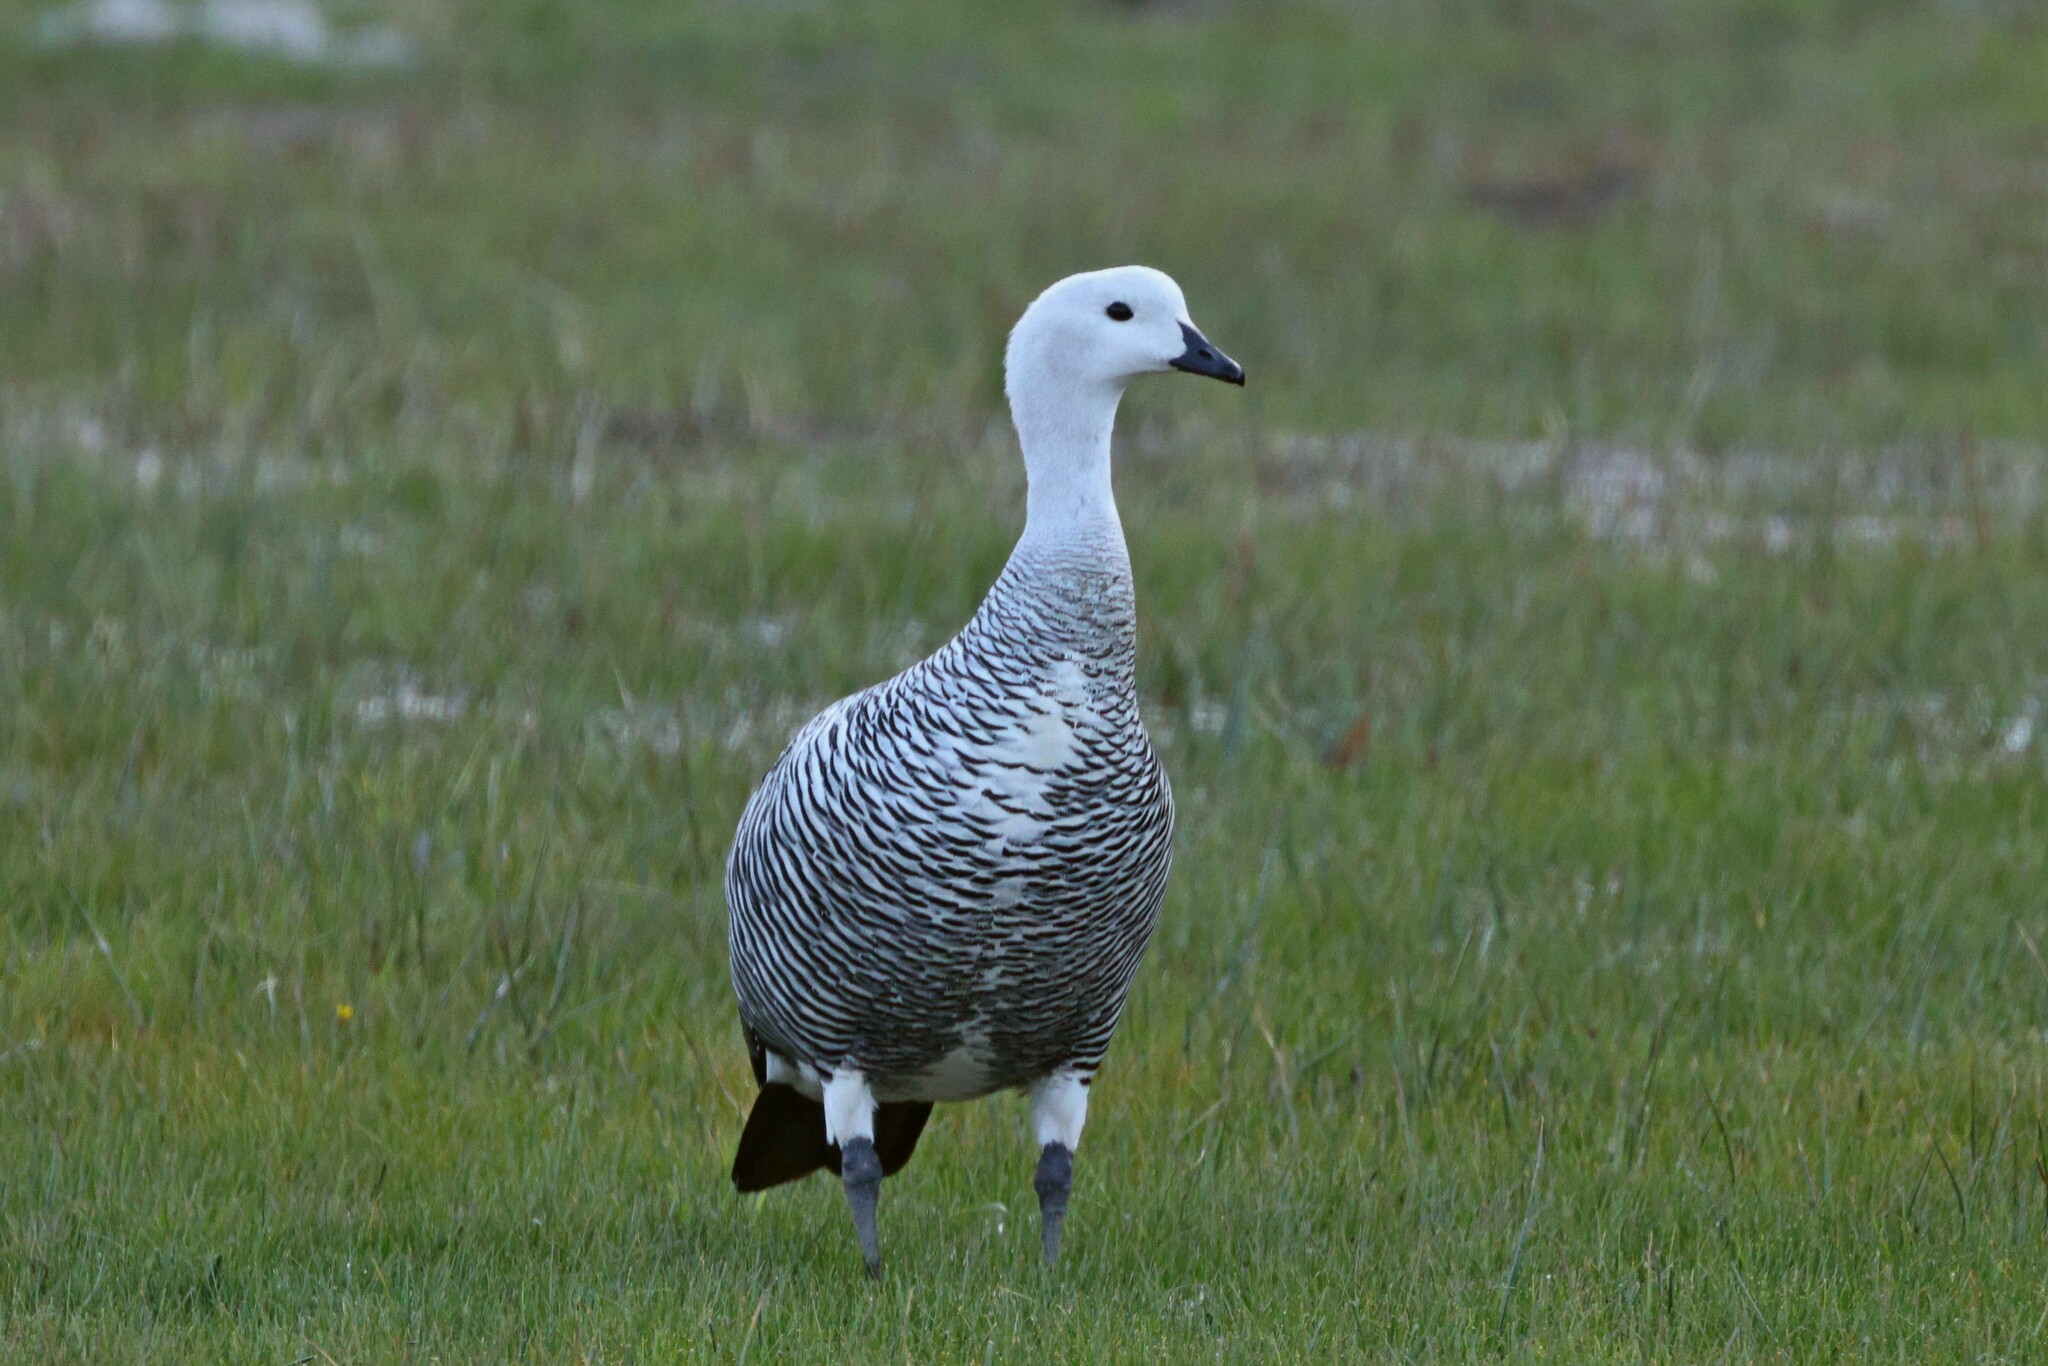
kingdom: Animalia
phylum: Chordata
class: Aves
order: Anseriformes
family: Anatidae
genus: Chloephaga
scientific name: Chloephaga picta
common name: Upland goose
